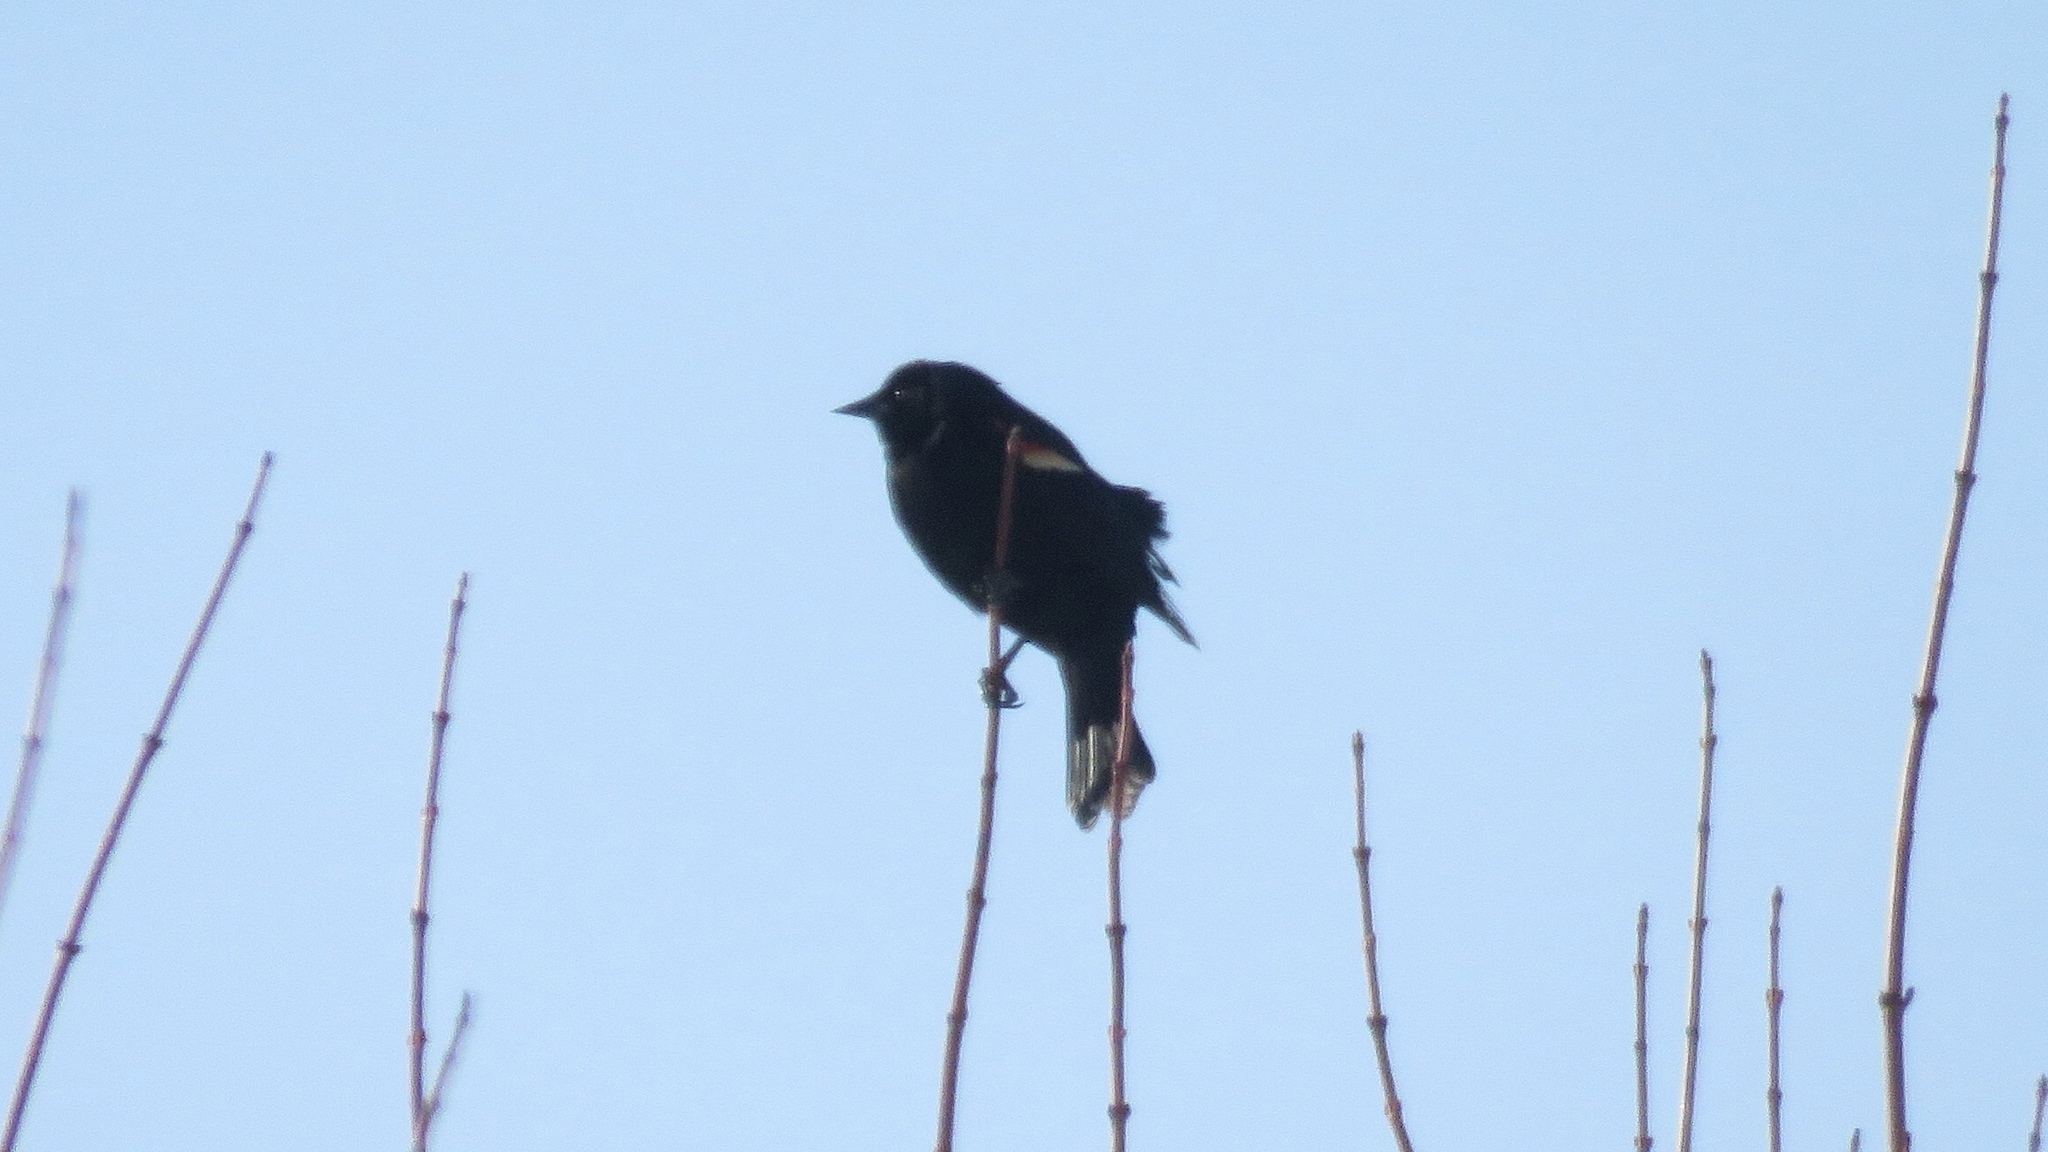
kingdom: Animalia
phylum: Chordata
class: Aves
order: Passeriformes
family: Icteridae
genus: Agelaius
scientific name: Agelaius phoeniceus
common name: Red-winged blackbird
